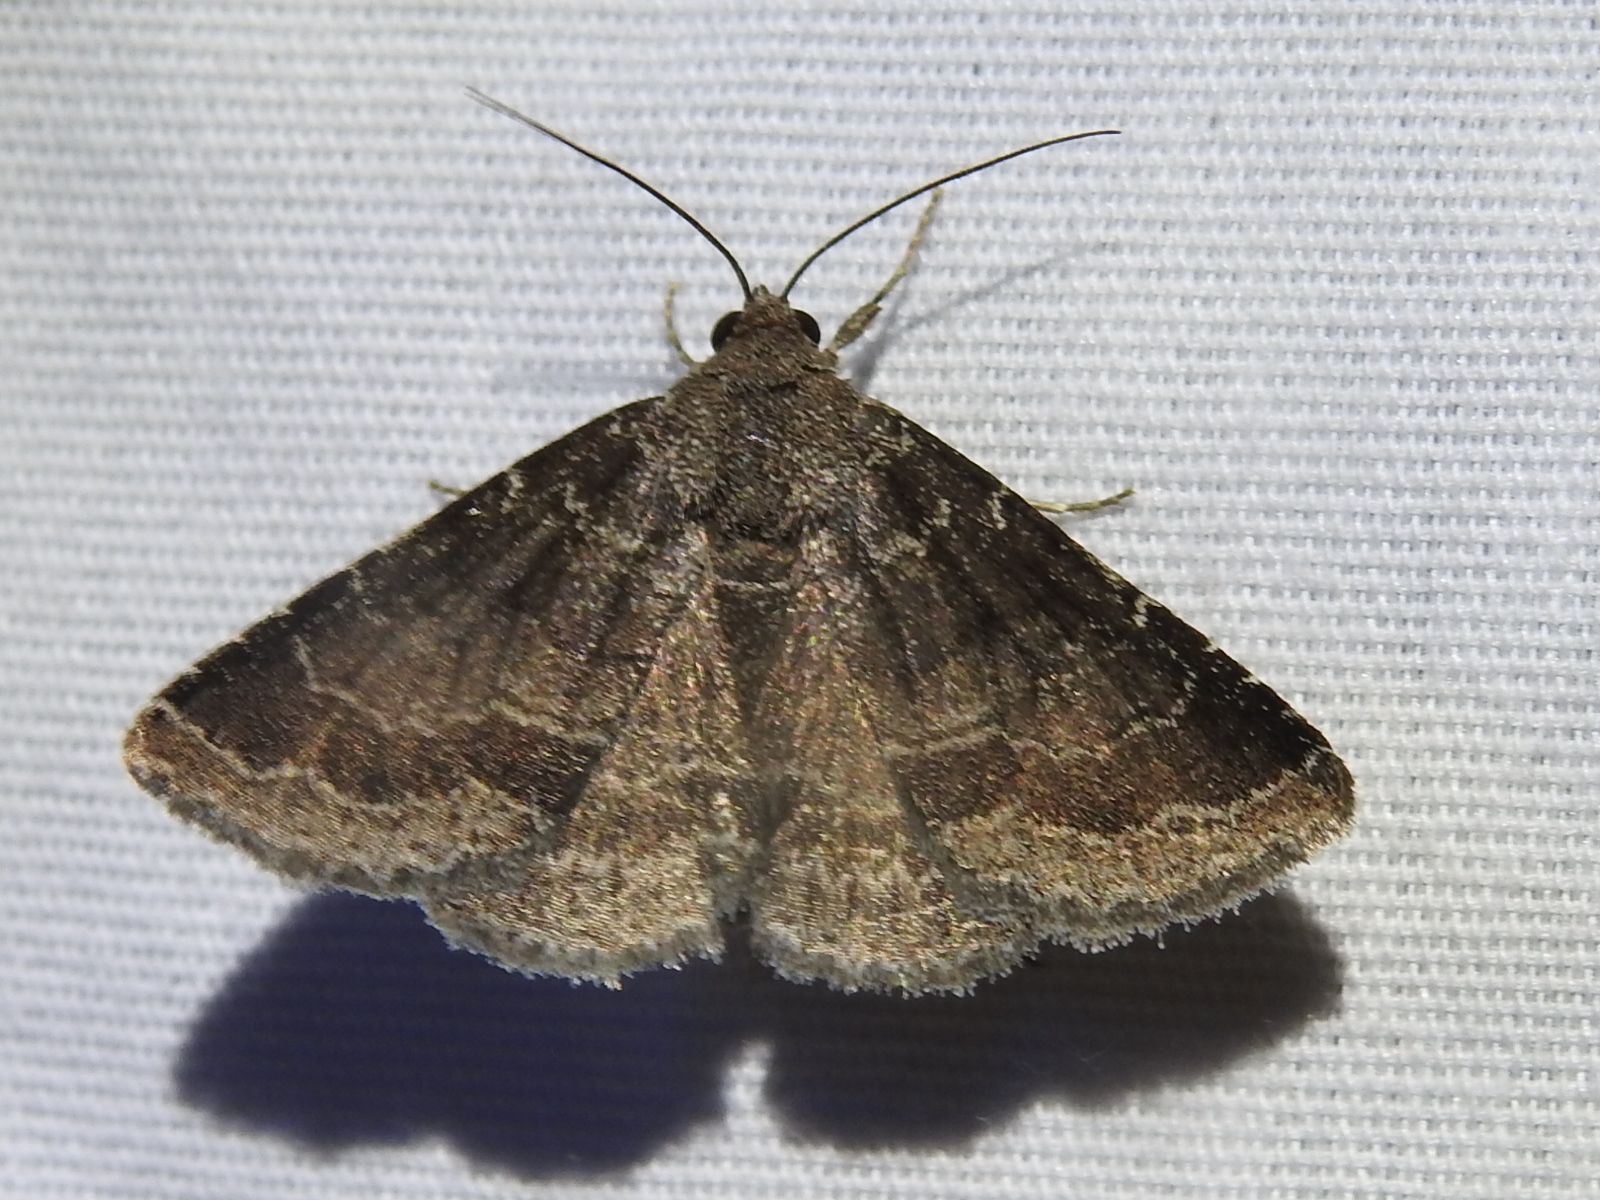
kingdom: Animalia
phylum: Arthropoda
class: Insecta
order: Lepidoptera
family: Erebidae
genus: Matigramma
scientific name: Matigramma pulverilinea
